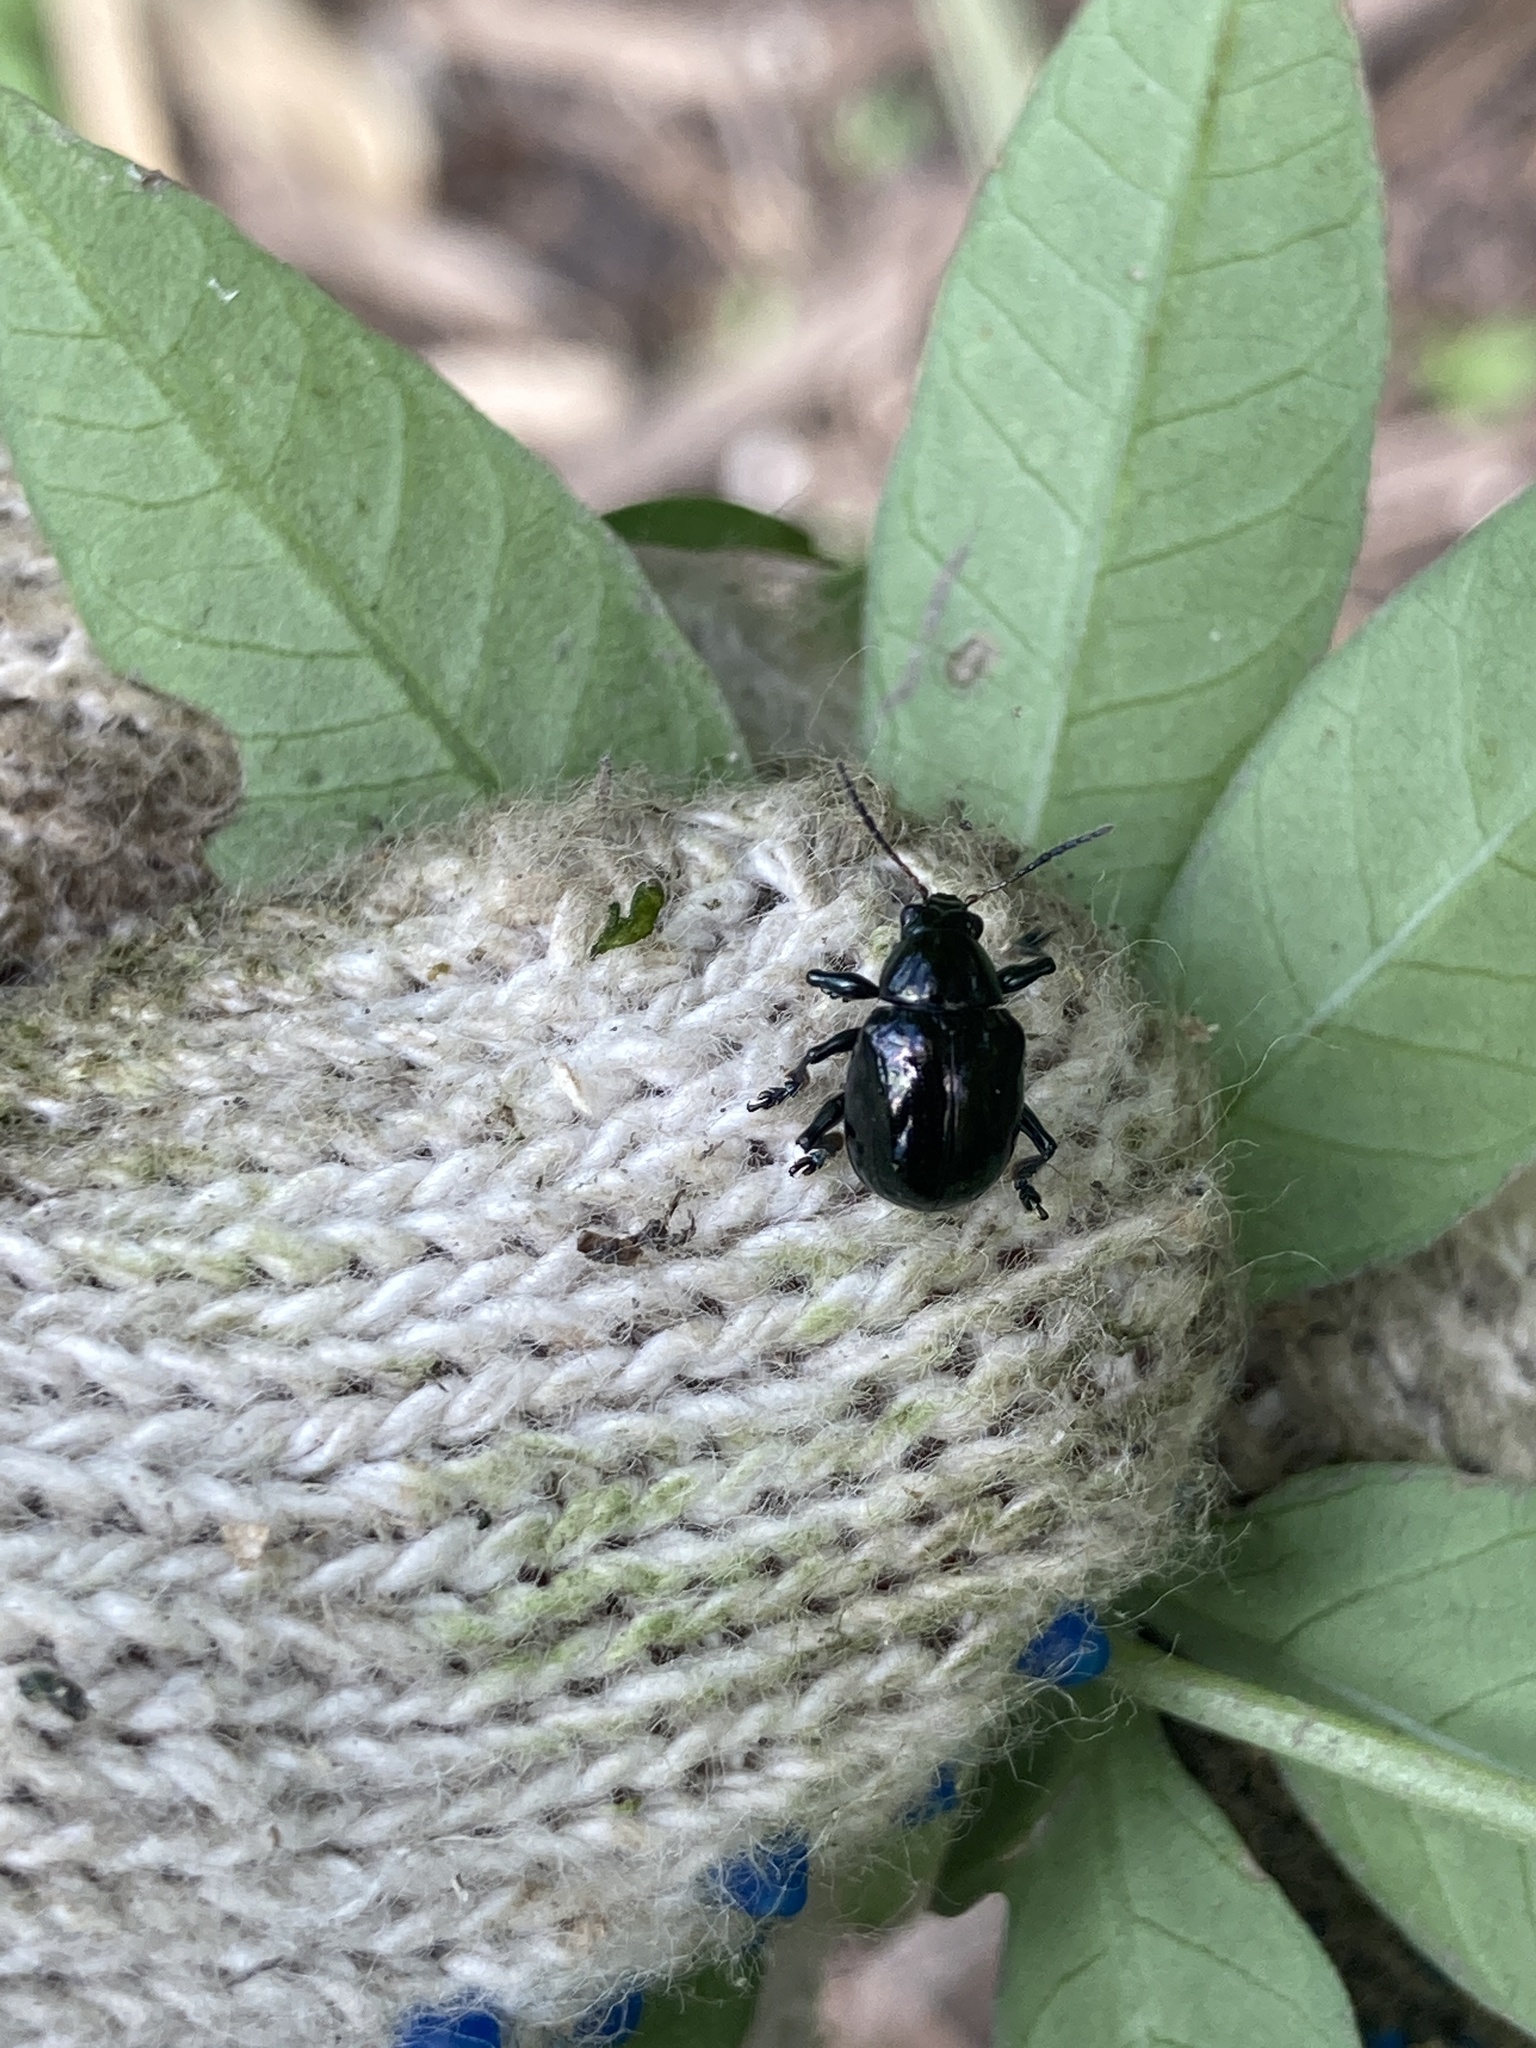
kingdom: Animalia
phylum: Arthropoda
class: Insecta
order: Coleoptera
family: Chrysomelidae
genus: Typophorus
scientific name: Typophorus nigritus
